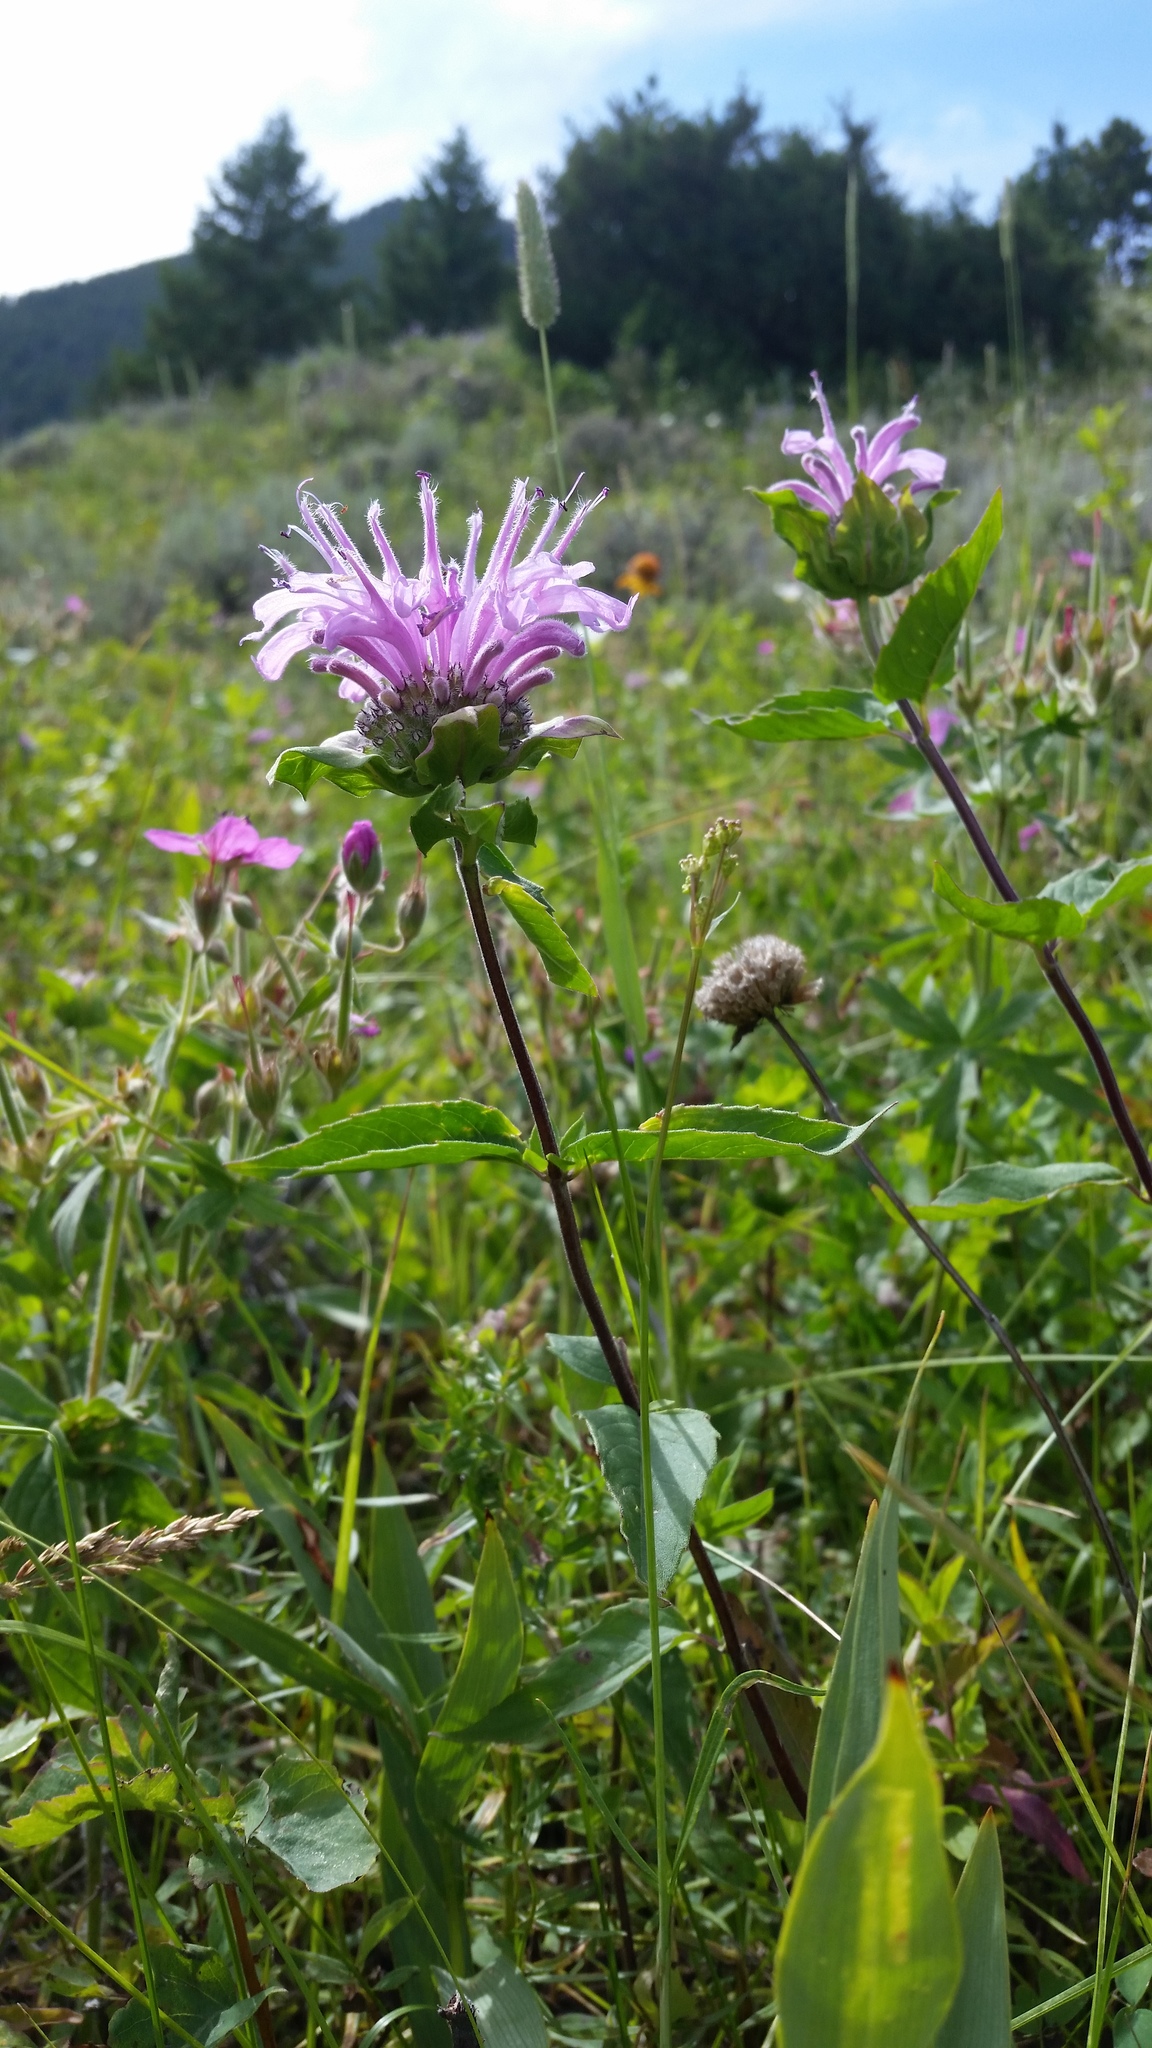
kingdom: Plantae
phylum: Tracheophyta
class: Magnoliopsida
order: Lamiales
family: Lamiaceae
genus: Monarda
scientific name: Monarda fistulosa
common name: Purple beebalm
